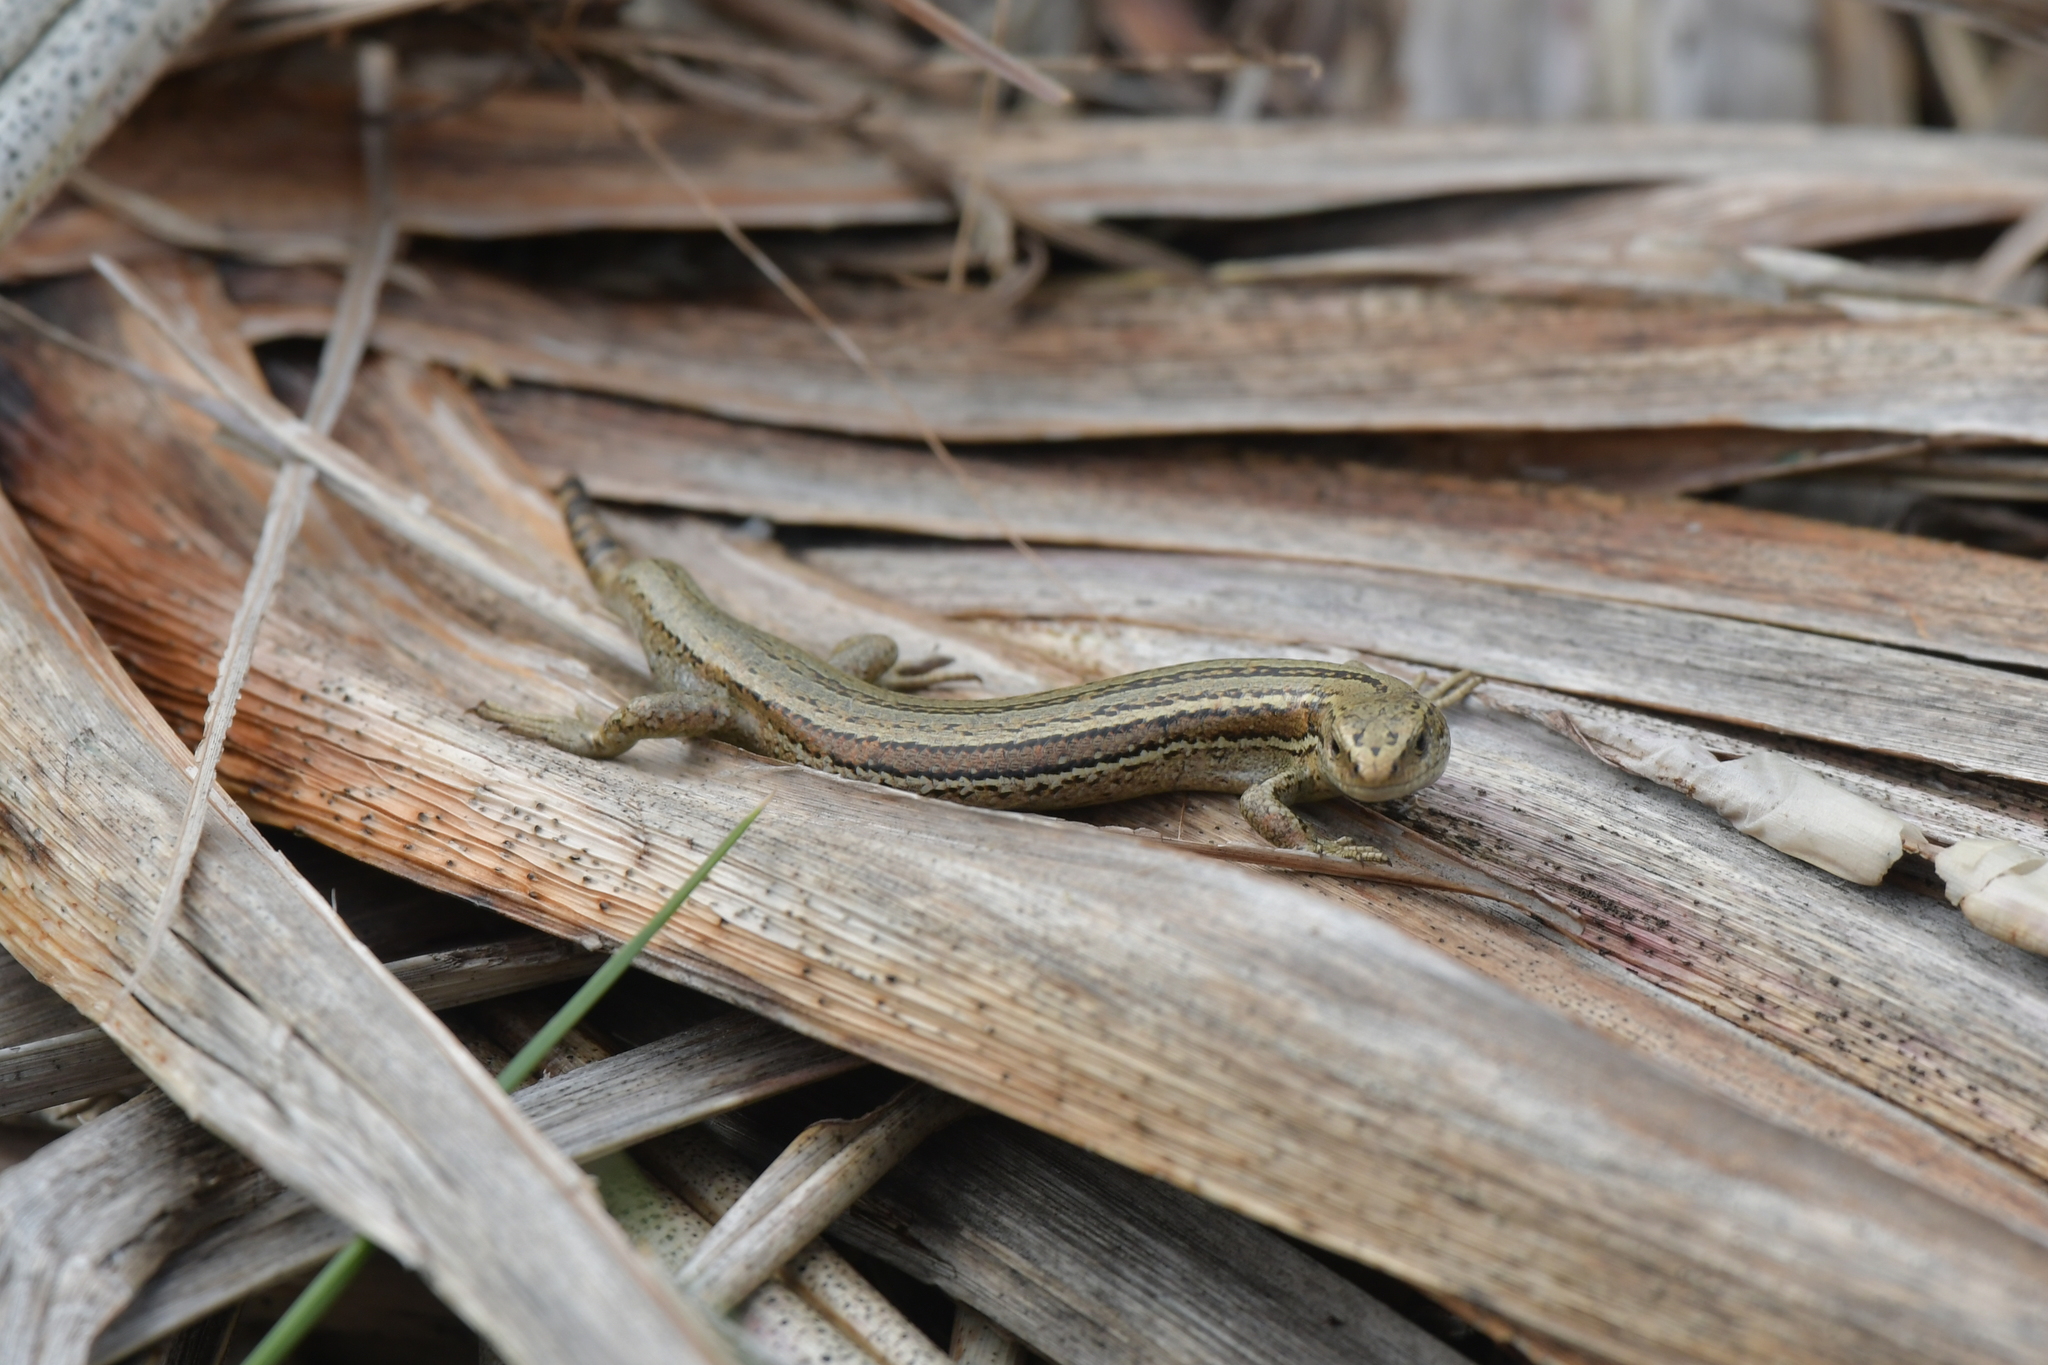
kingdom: Animalia
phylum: Chordata
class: Squamata
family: Scincidae
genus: Oligosoma
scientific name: Oligosoma polychroma
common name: Common new zealand skink
